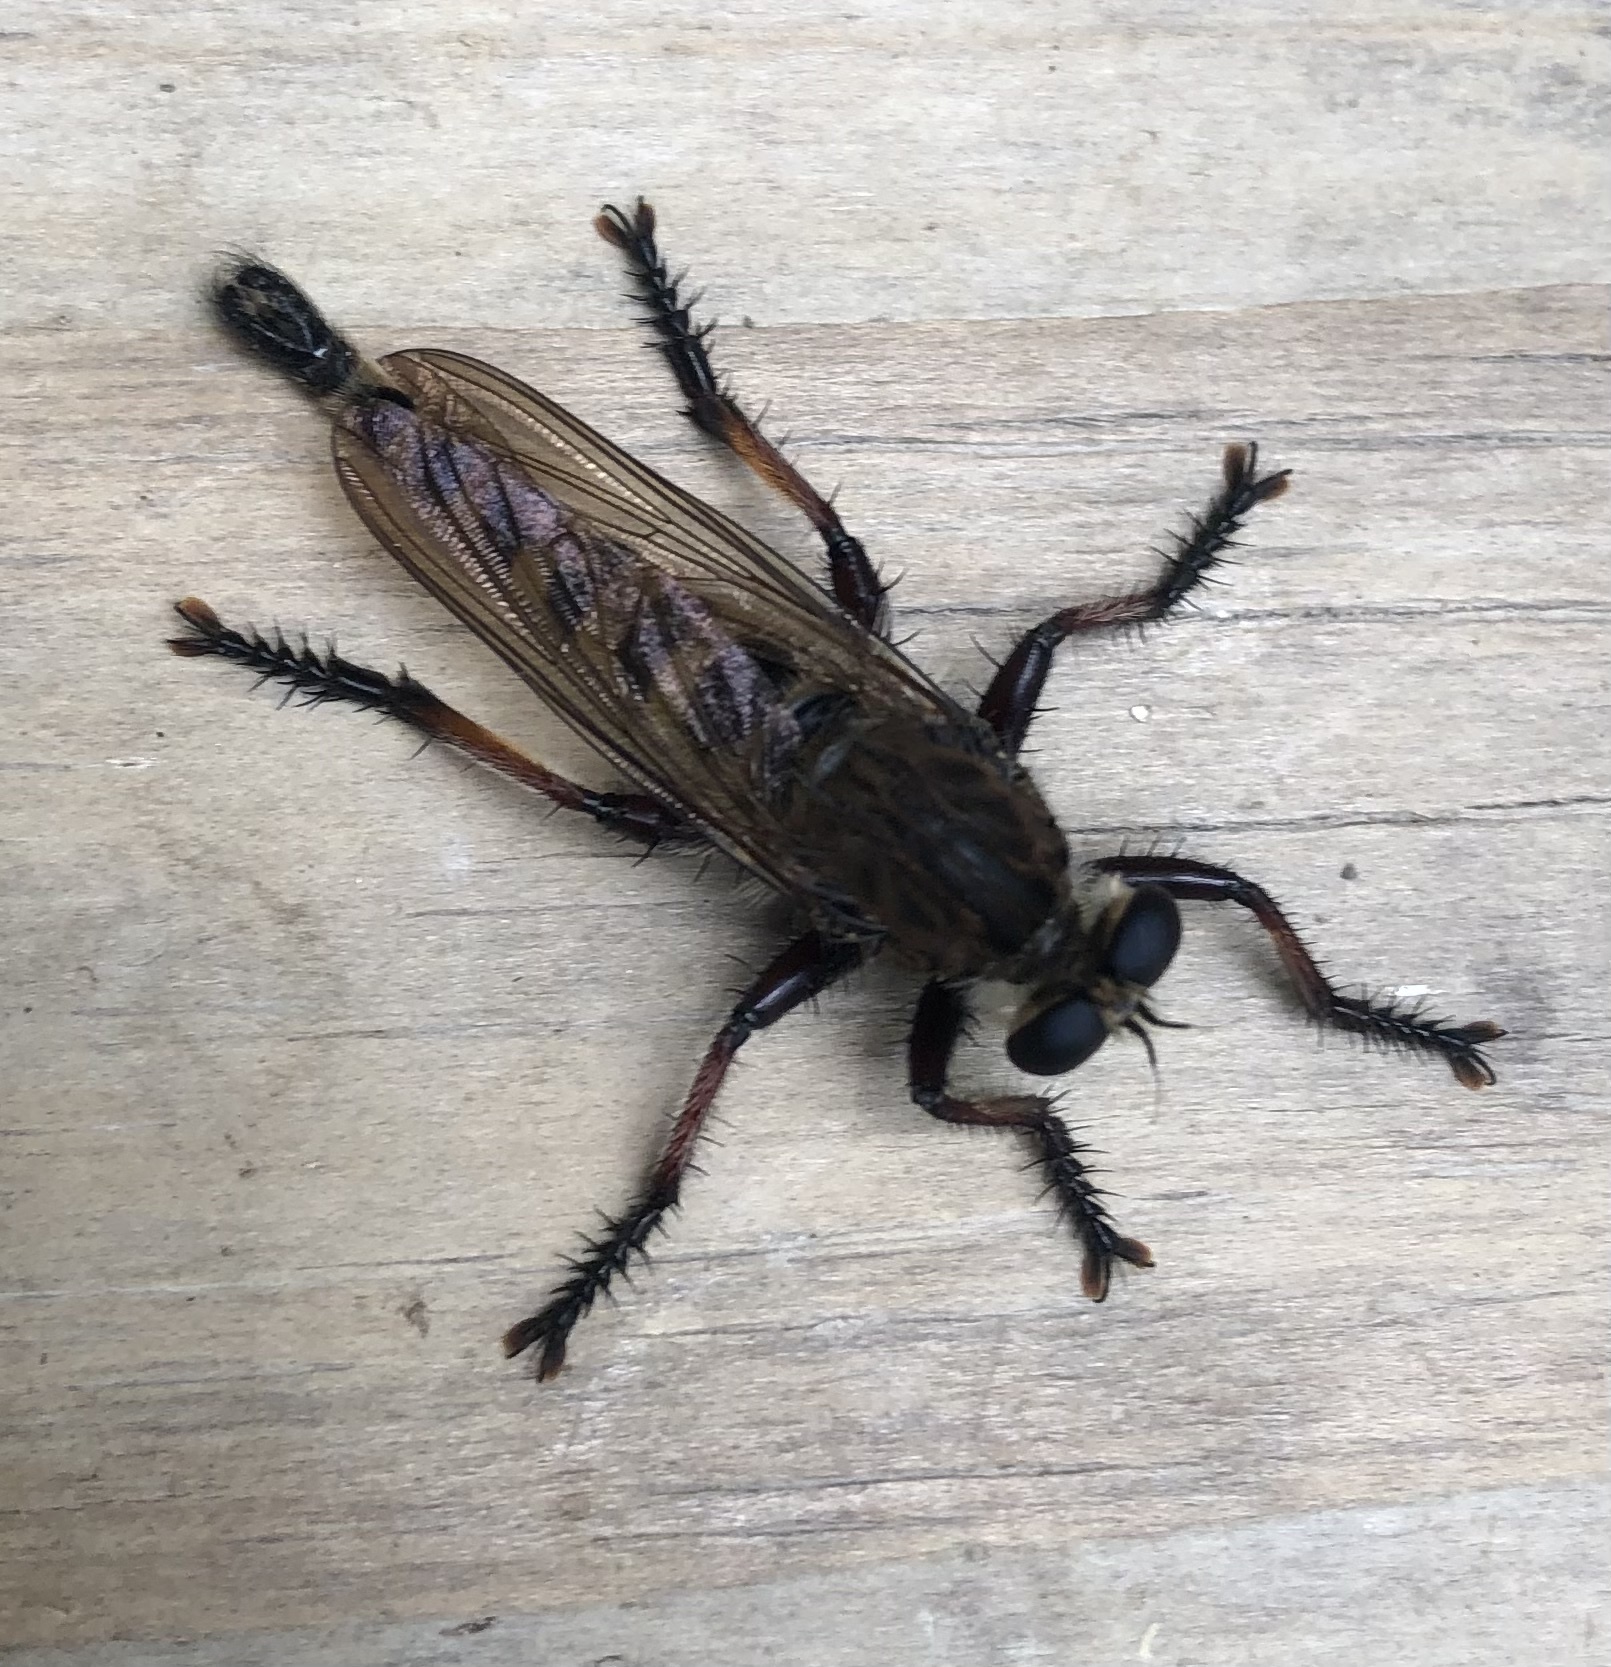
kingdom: Animalia
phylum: Arthropoda
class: Insecta
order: Diptera
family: Asilidae
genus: Promachus
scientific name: Promachus hinei
